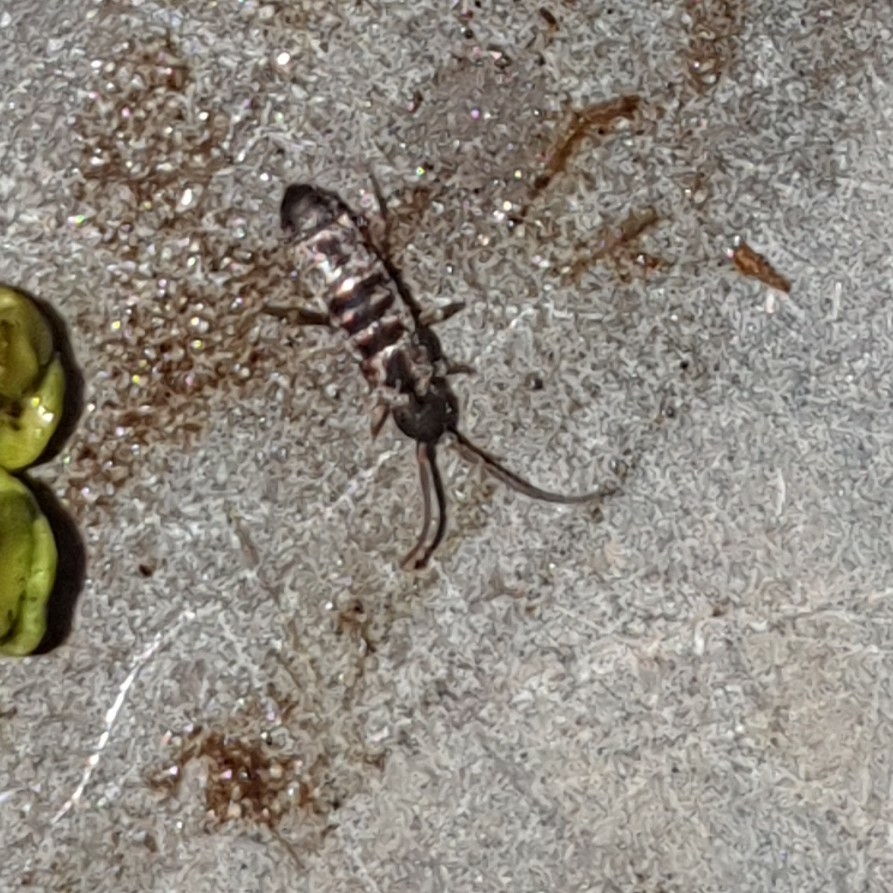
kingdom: Animalia
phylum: Arthropoda
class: Collembola
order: Entomobryomorpha
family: Tomoceridae
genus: Tomocerus
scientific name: Tomocerus vulgaris
